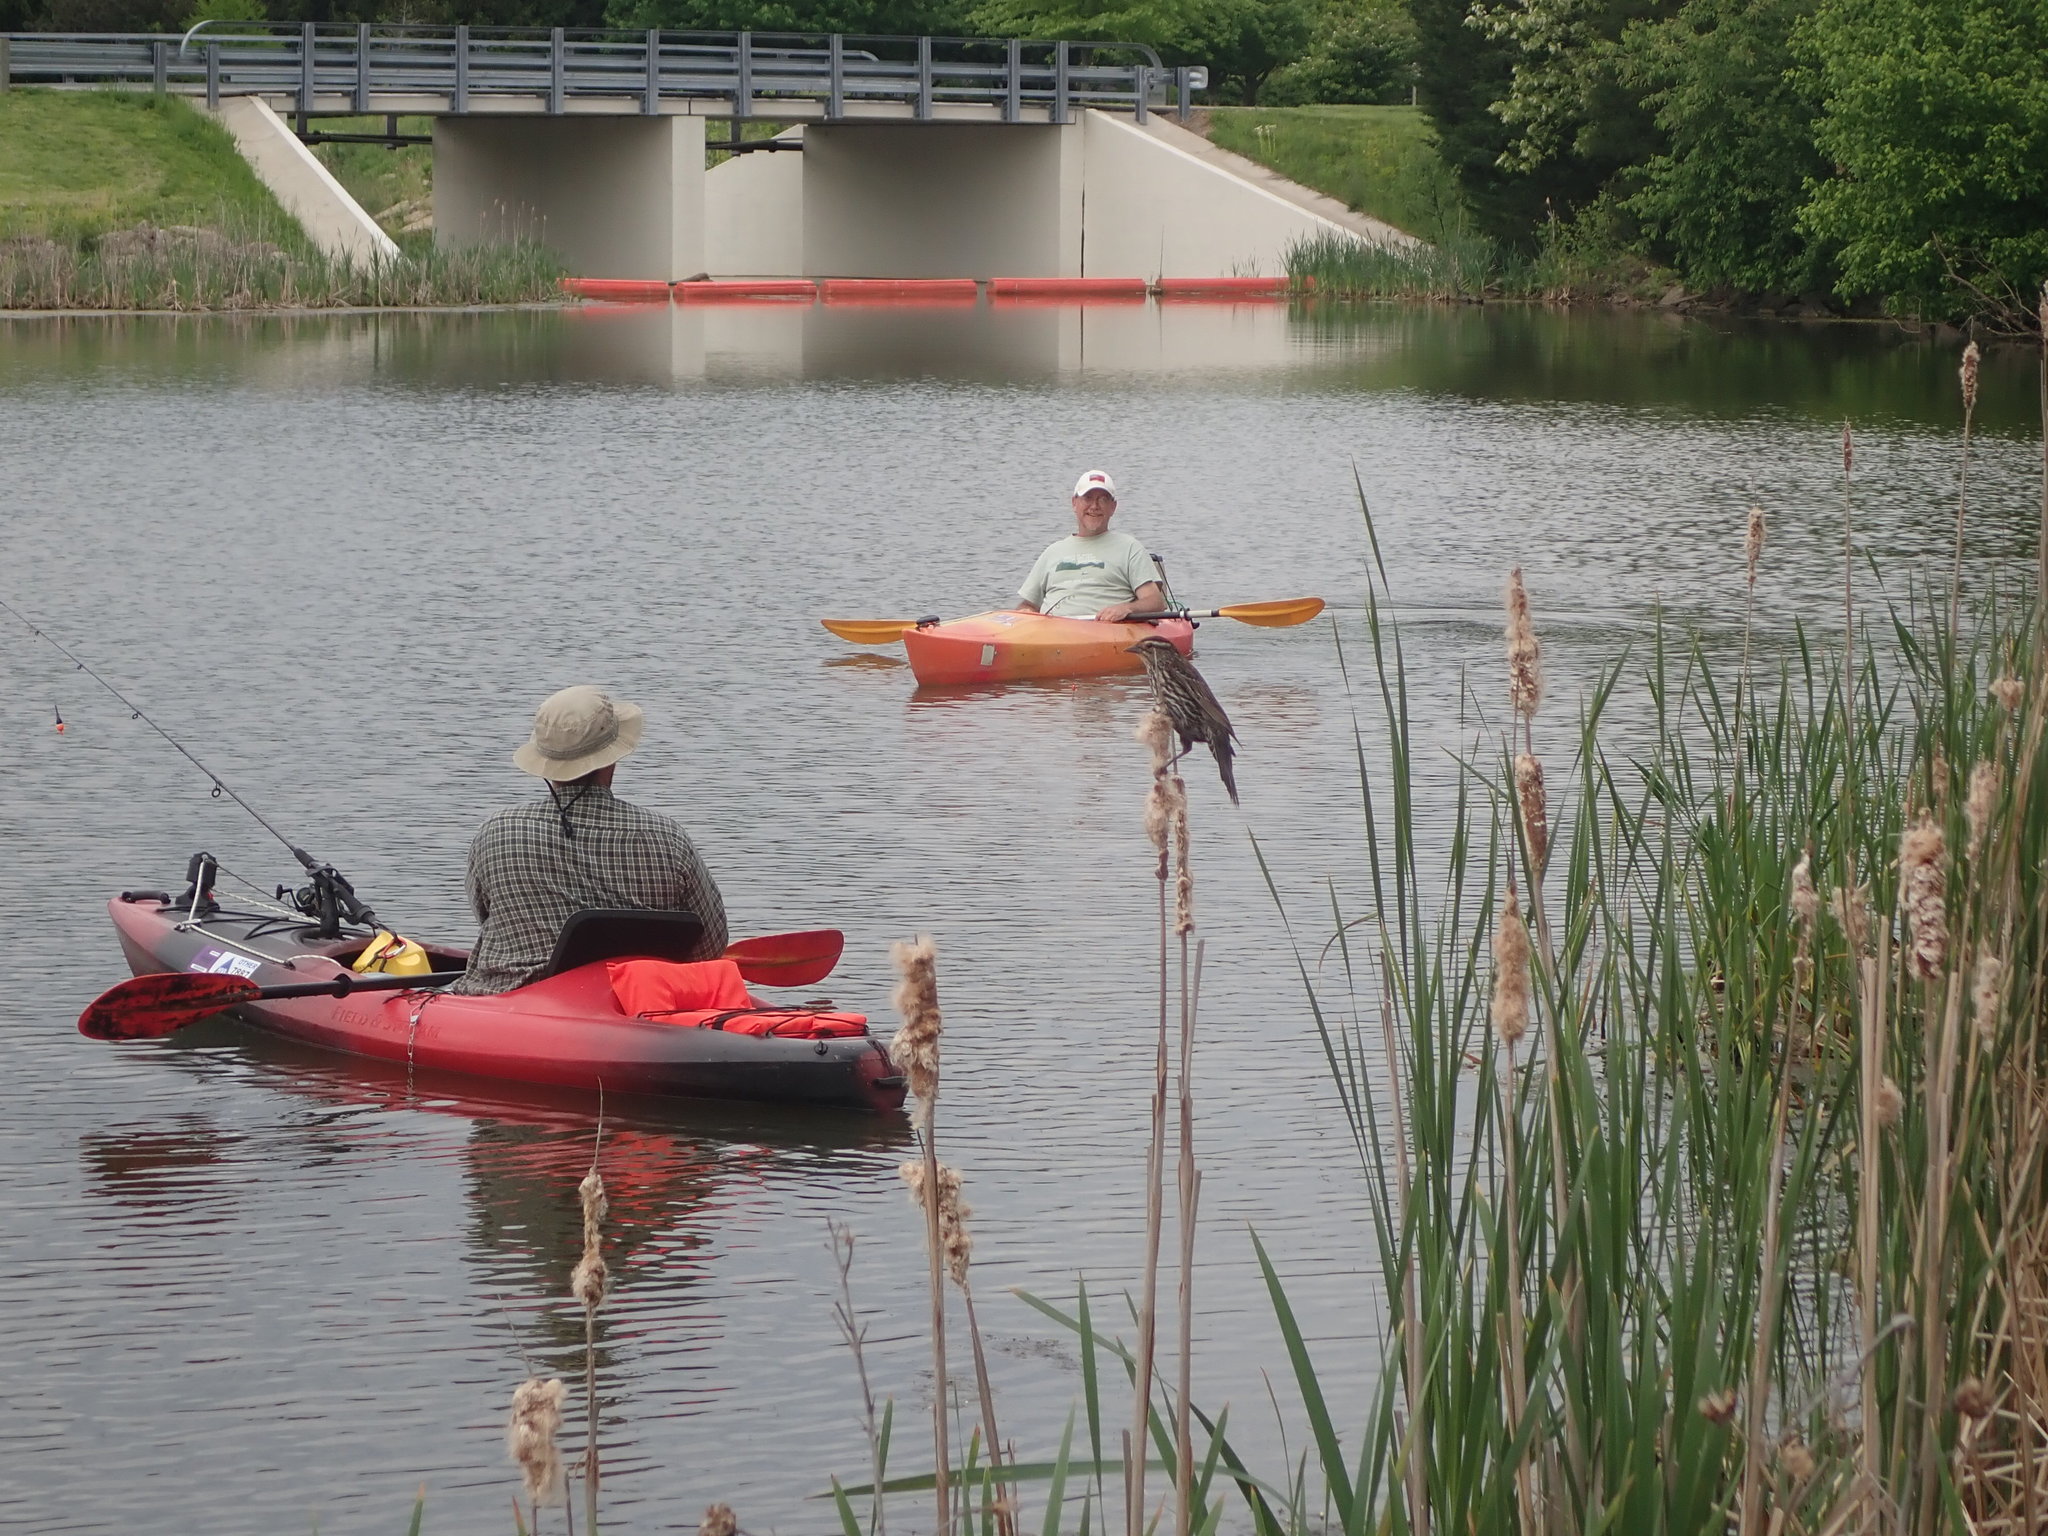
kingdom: Animalia
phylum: Chordata
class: Aves
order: Passeriformes
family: Icteridae
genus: Agelaius
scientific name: Agelaius phoeniceus
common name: Red-winged blackbird
